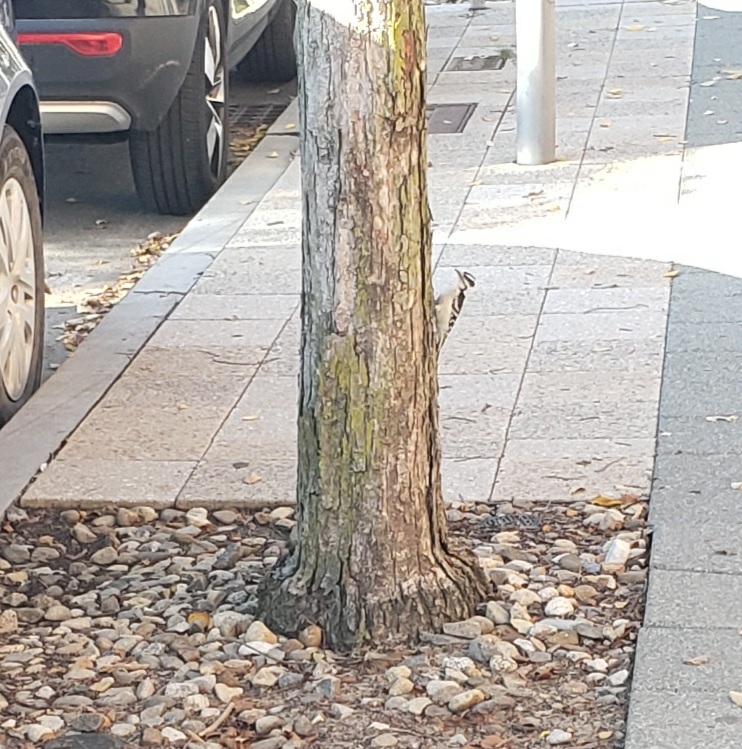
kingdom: Animalia
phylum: Chordata
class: Aves
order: Piciformes
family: Picidae
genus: Dryobates
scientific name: Dryobates pubescens
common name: Downy woodpecker
